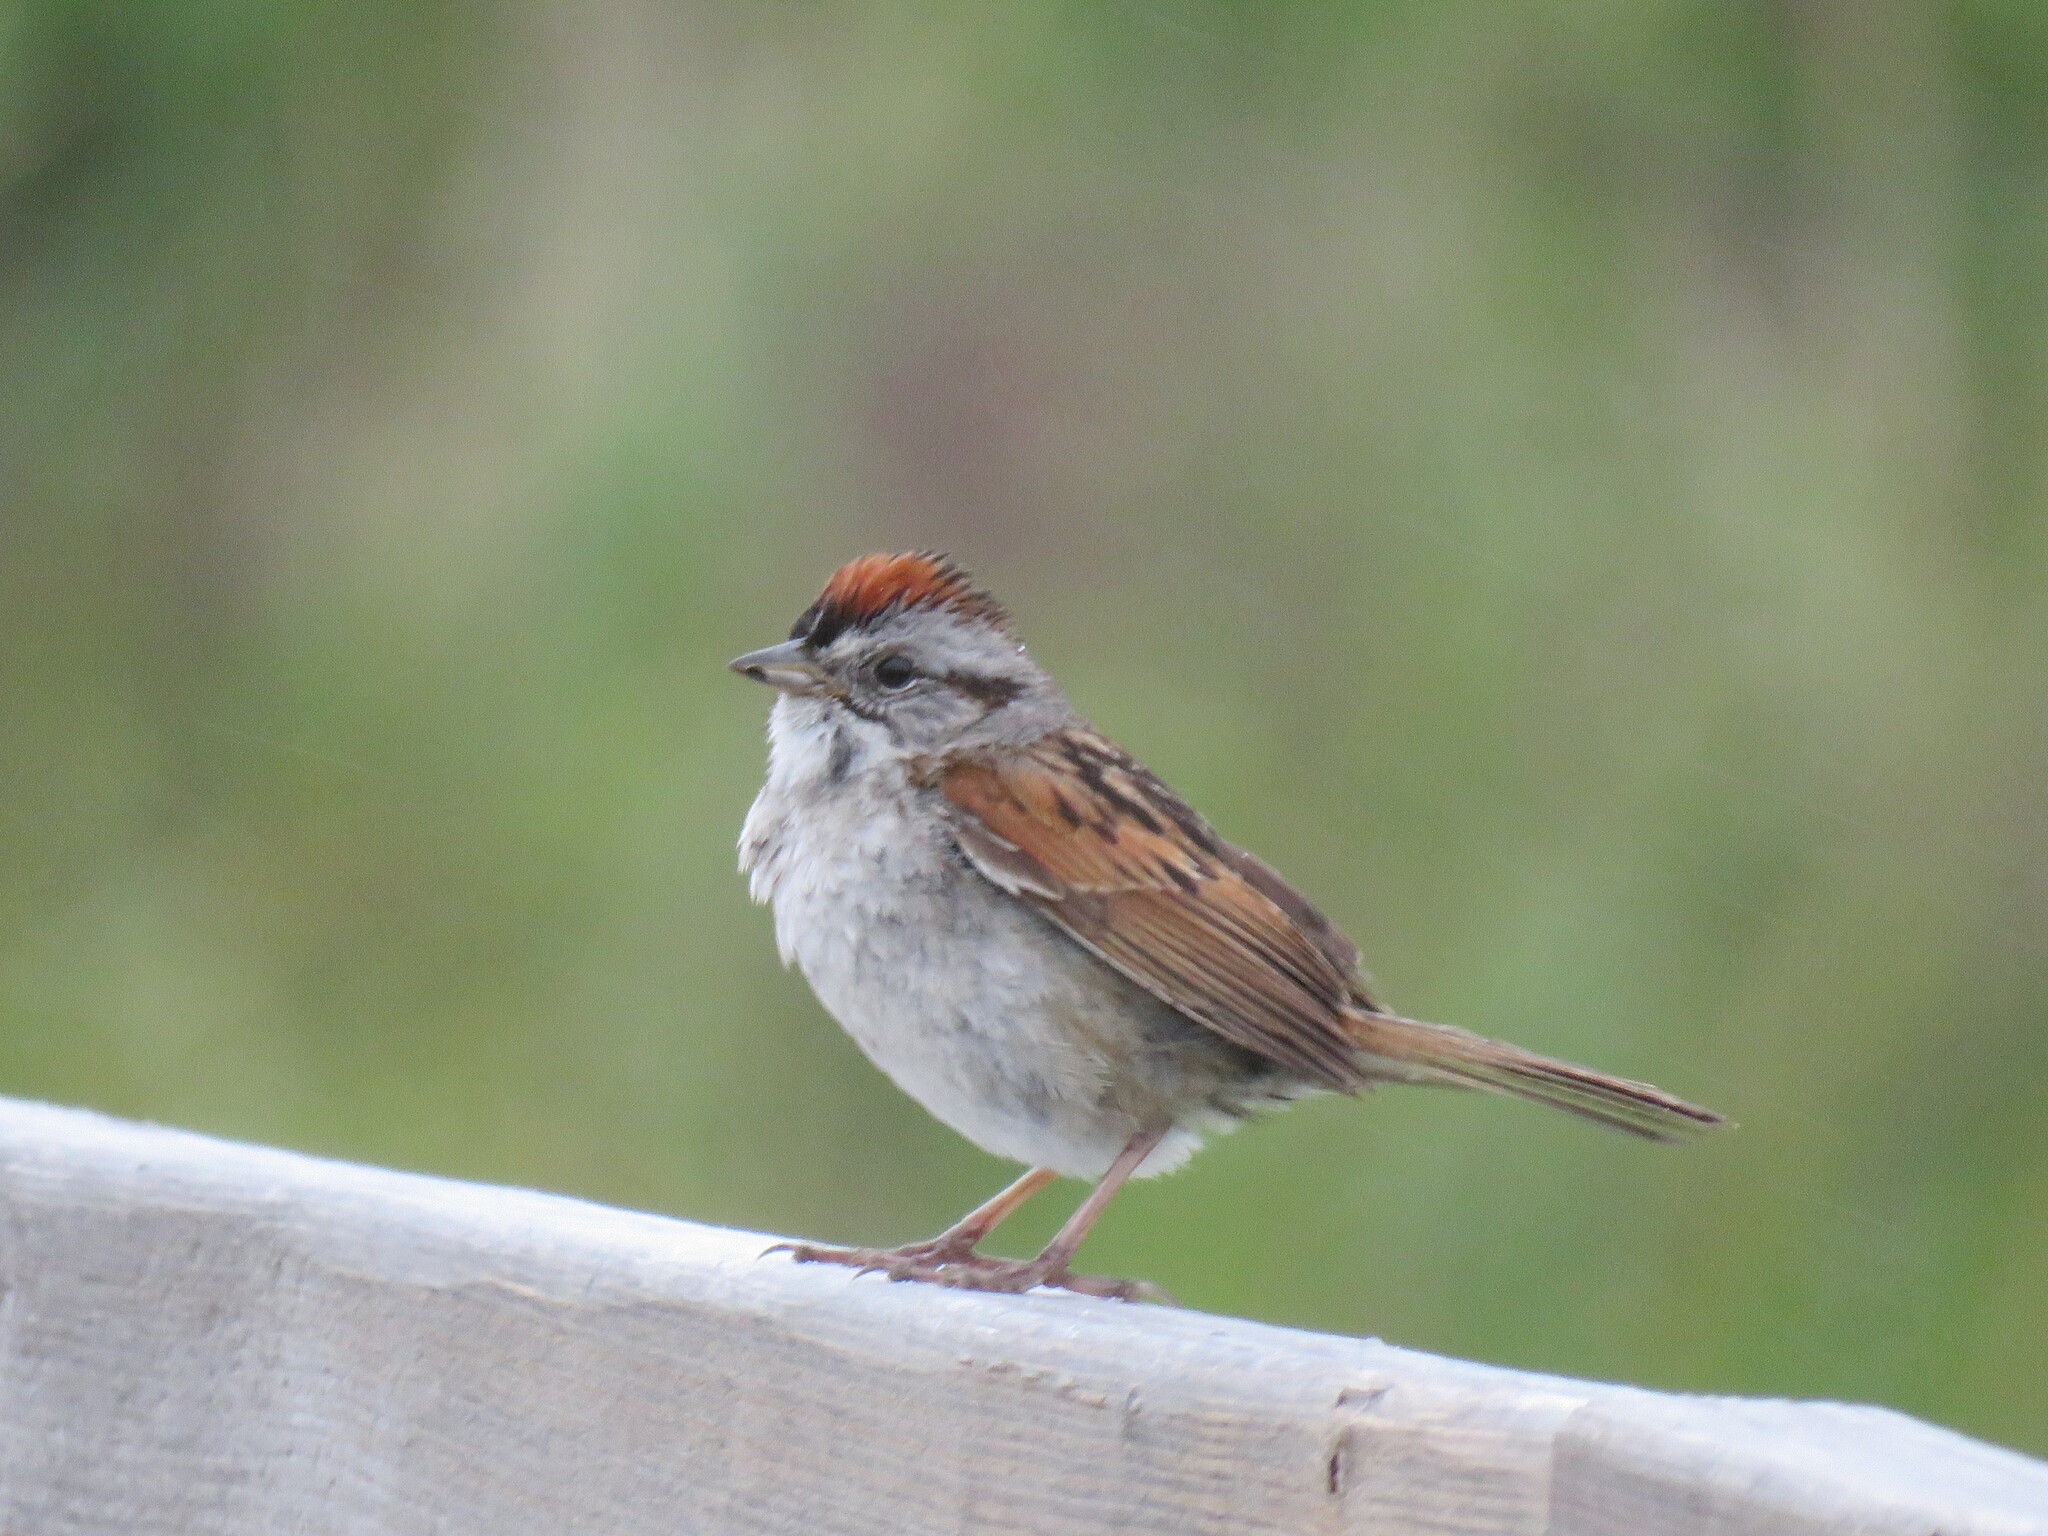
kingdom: Animalia
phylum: Chordata
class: Aves
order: Passeriformes
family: Passerellidae
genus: Melospiza
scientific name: Melospiza georgiana
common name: Swamp sparrow
